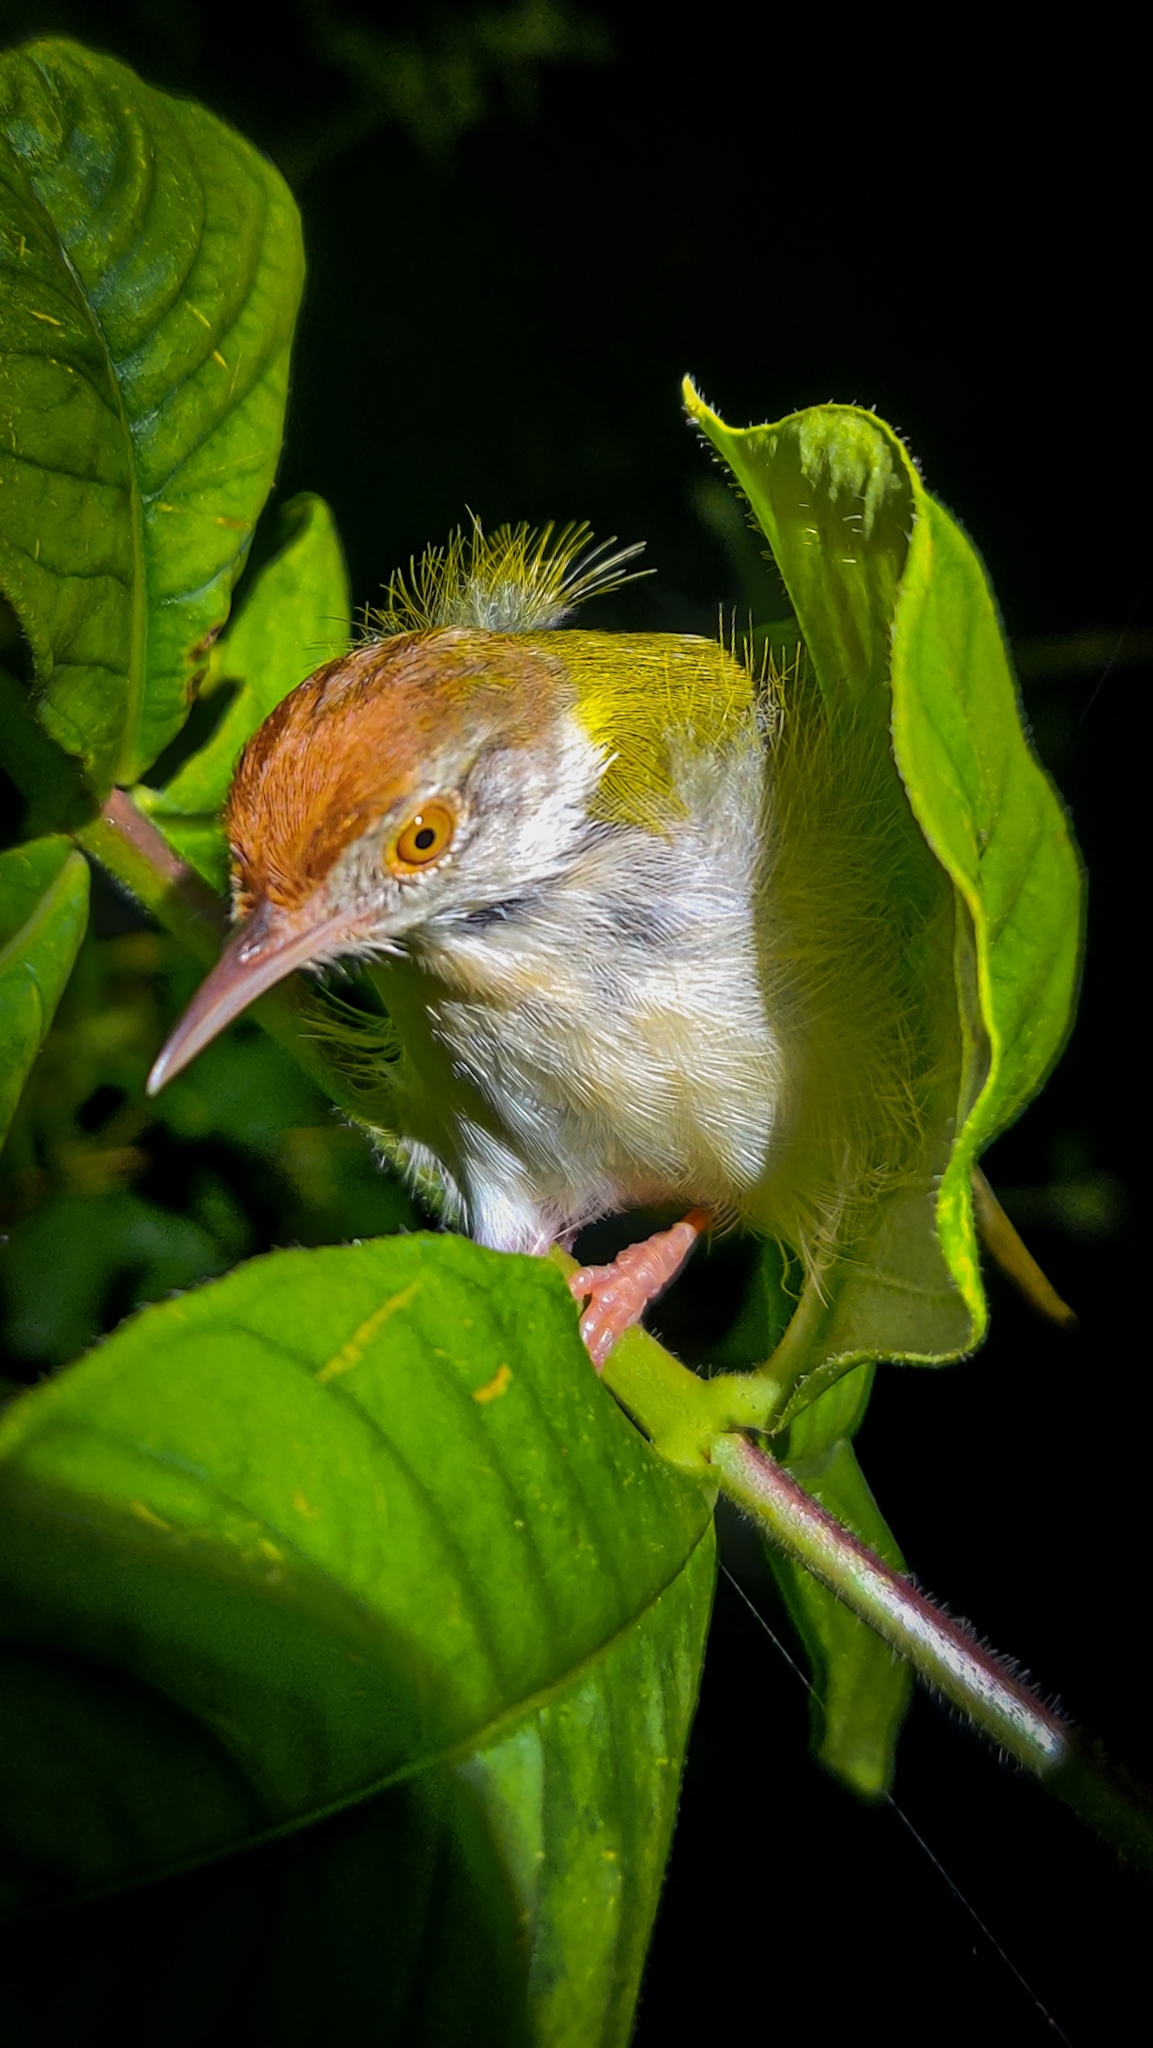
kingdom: Animalia
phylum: Chordata
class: Aves
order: Passeriformes
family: Cisticolidae
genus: Orthotomus
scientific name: Orthotomus sutorius
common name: Common tailorbird
